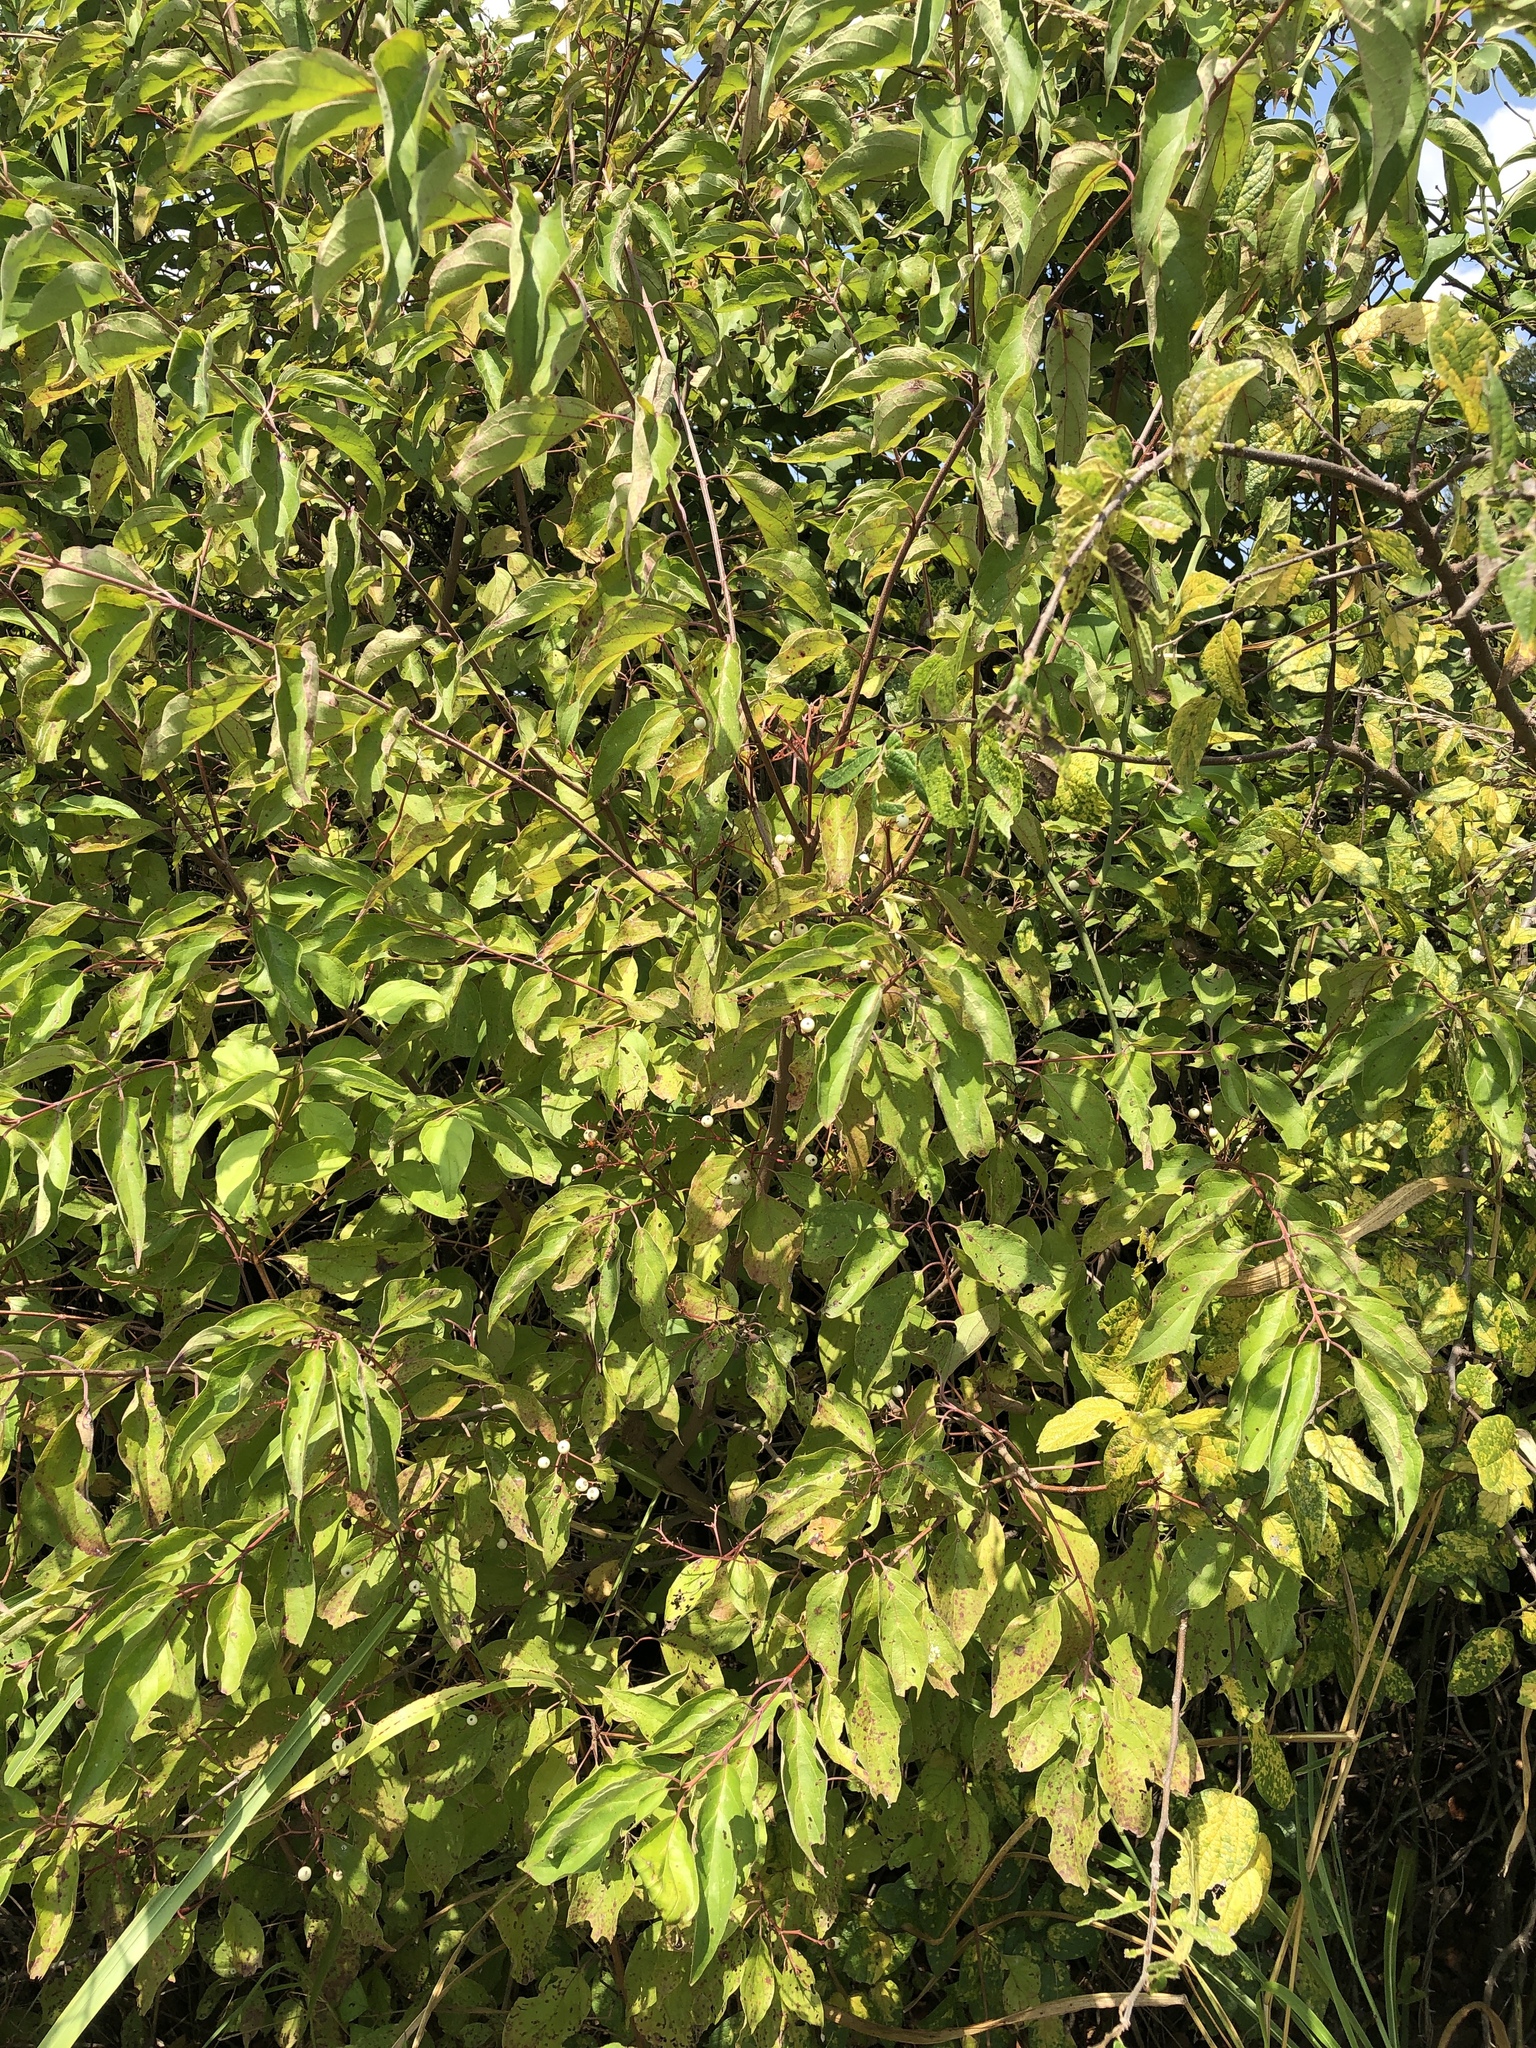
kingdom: Plantae
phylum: Tracheophyta
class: Magnoliopsida
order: Cornales
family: Cornaceae
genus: Cornus
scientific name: Cornus drummondii
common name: Rough-leaf dogwood
